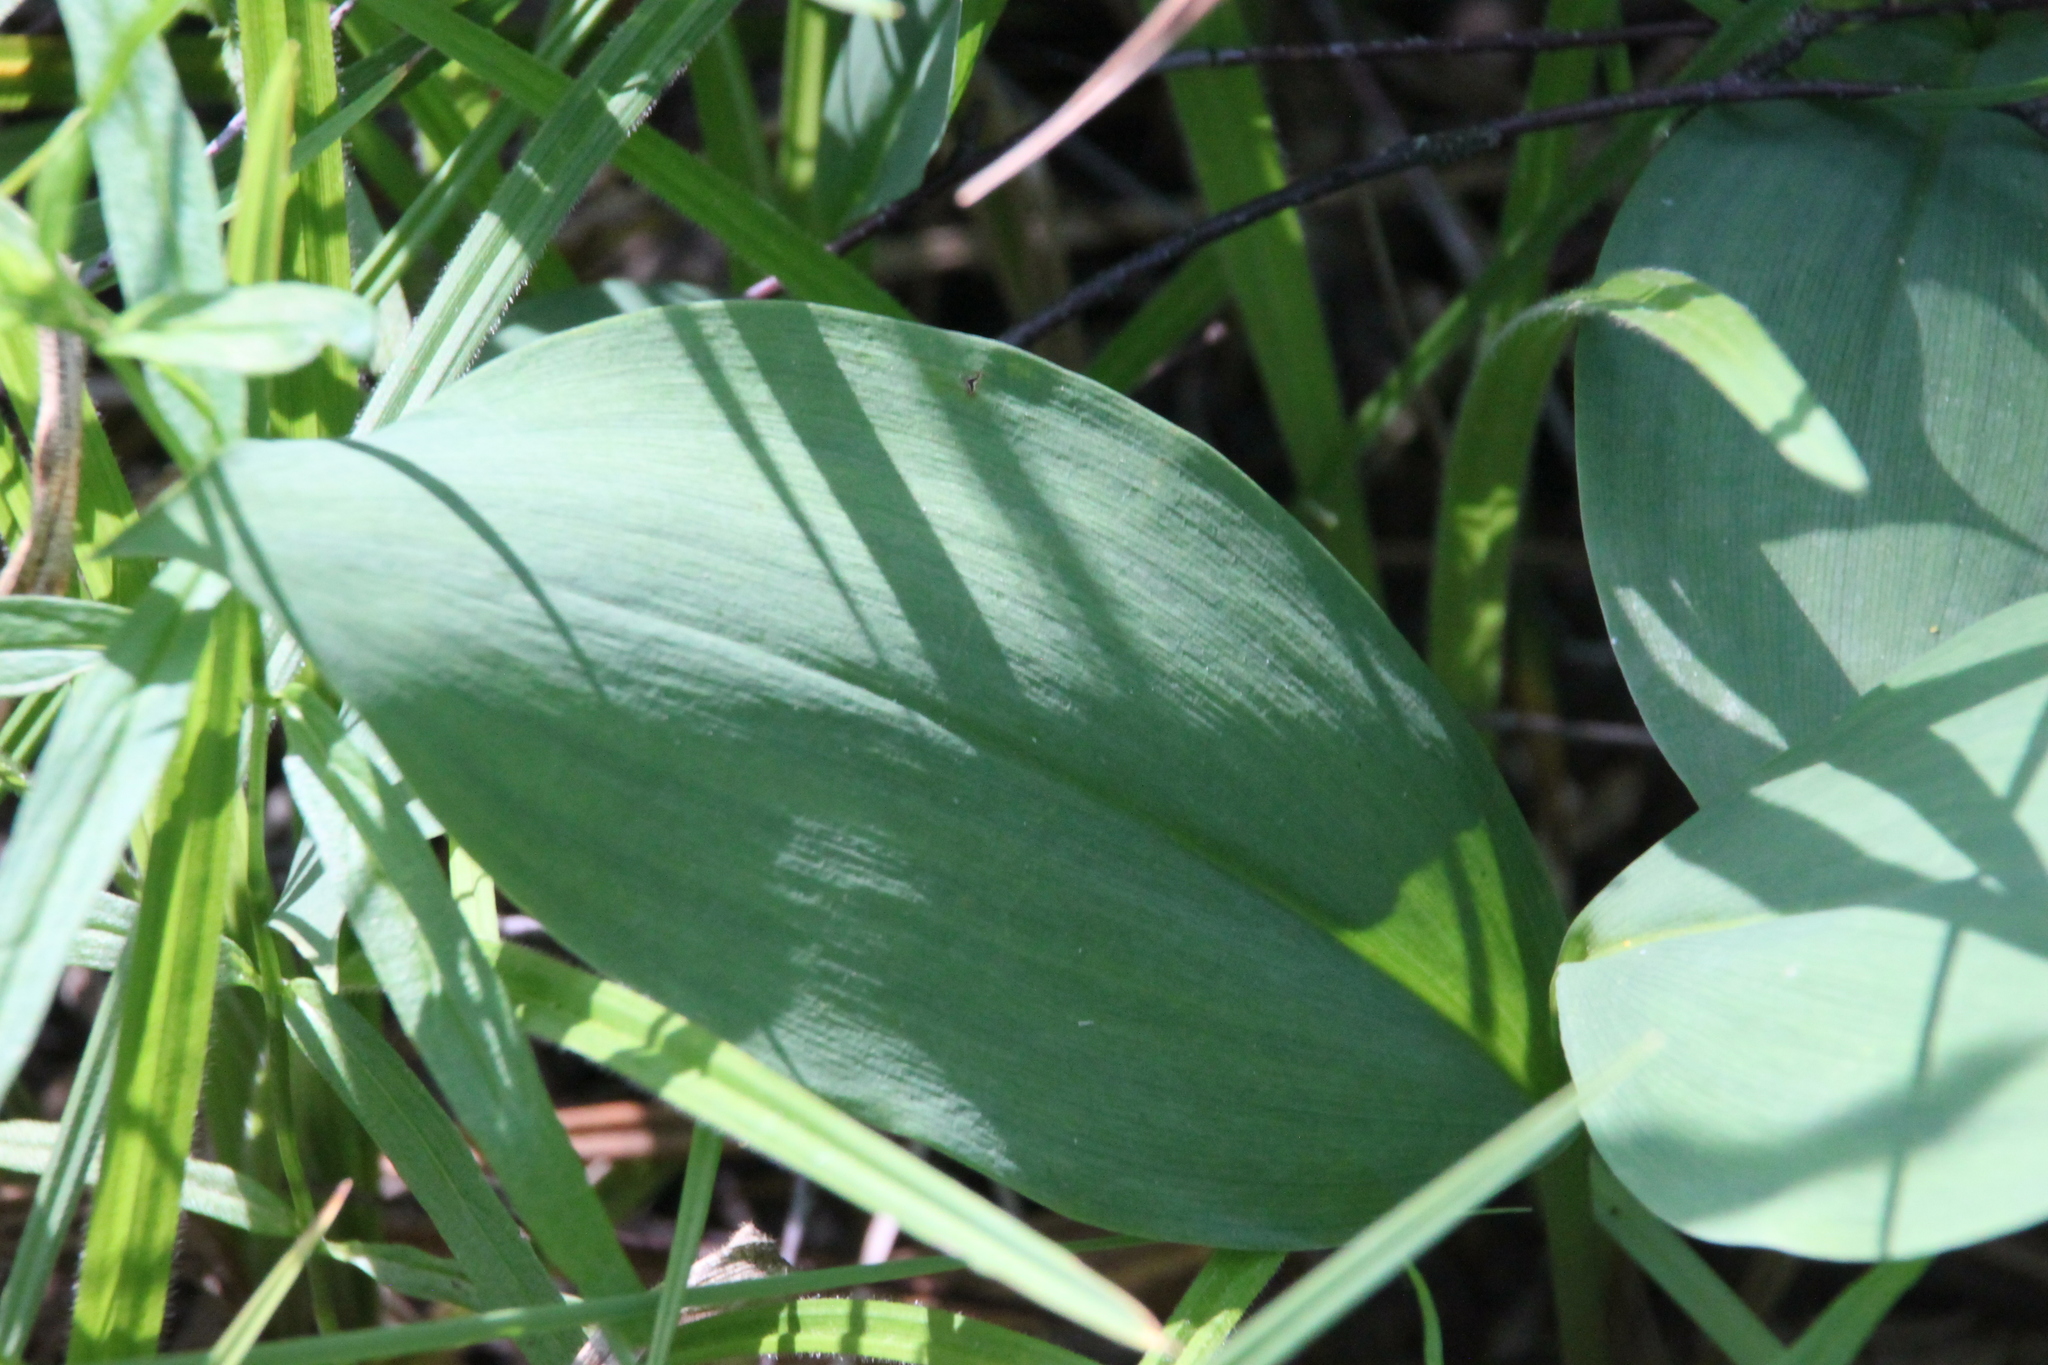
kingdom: Plantae
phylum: Tracheophyta
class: Liliopsida
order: Asparagales
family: Asparagaceae
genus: Convallaria
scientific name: Convallaria majalis
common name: Lily-of-the-valley
